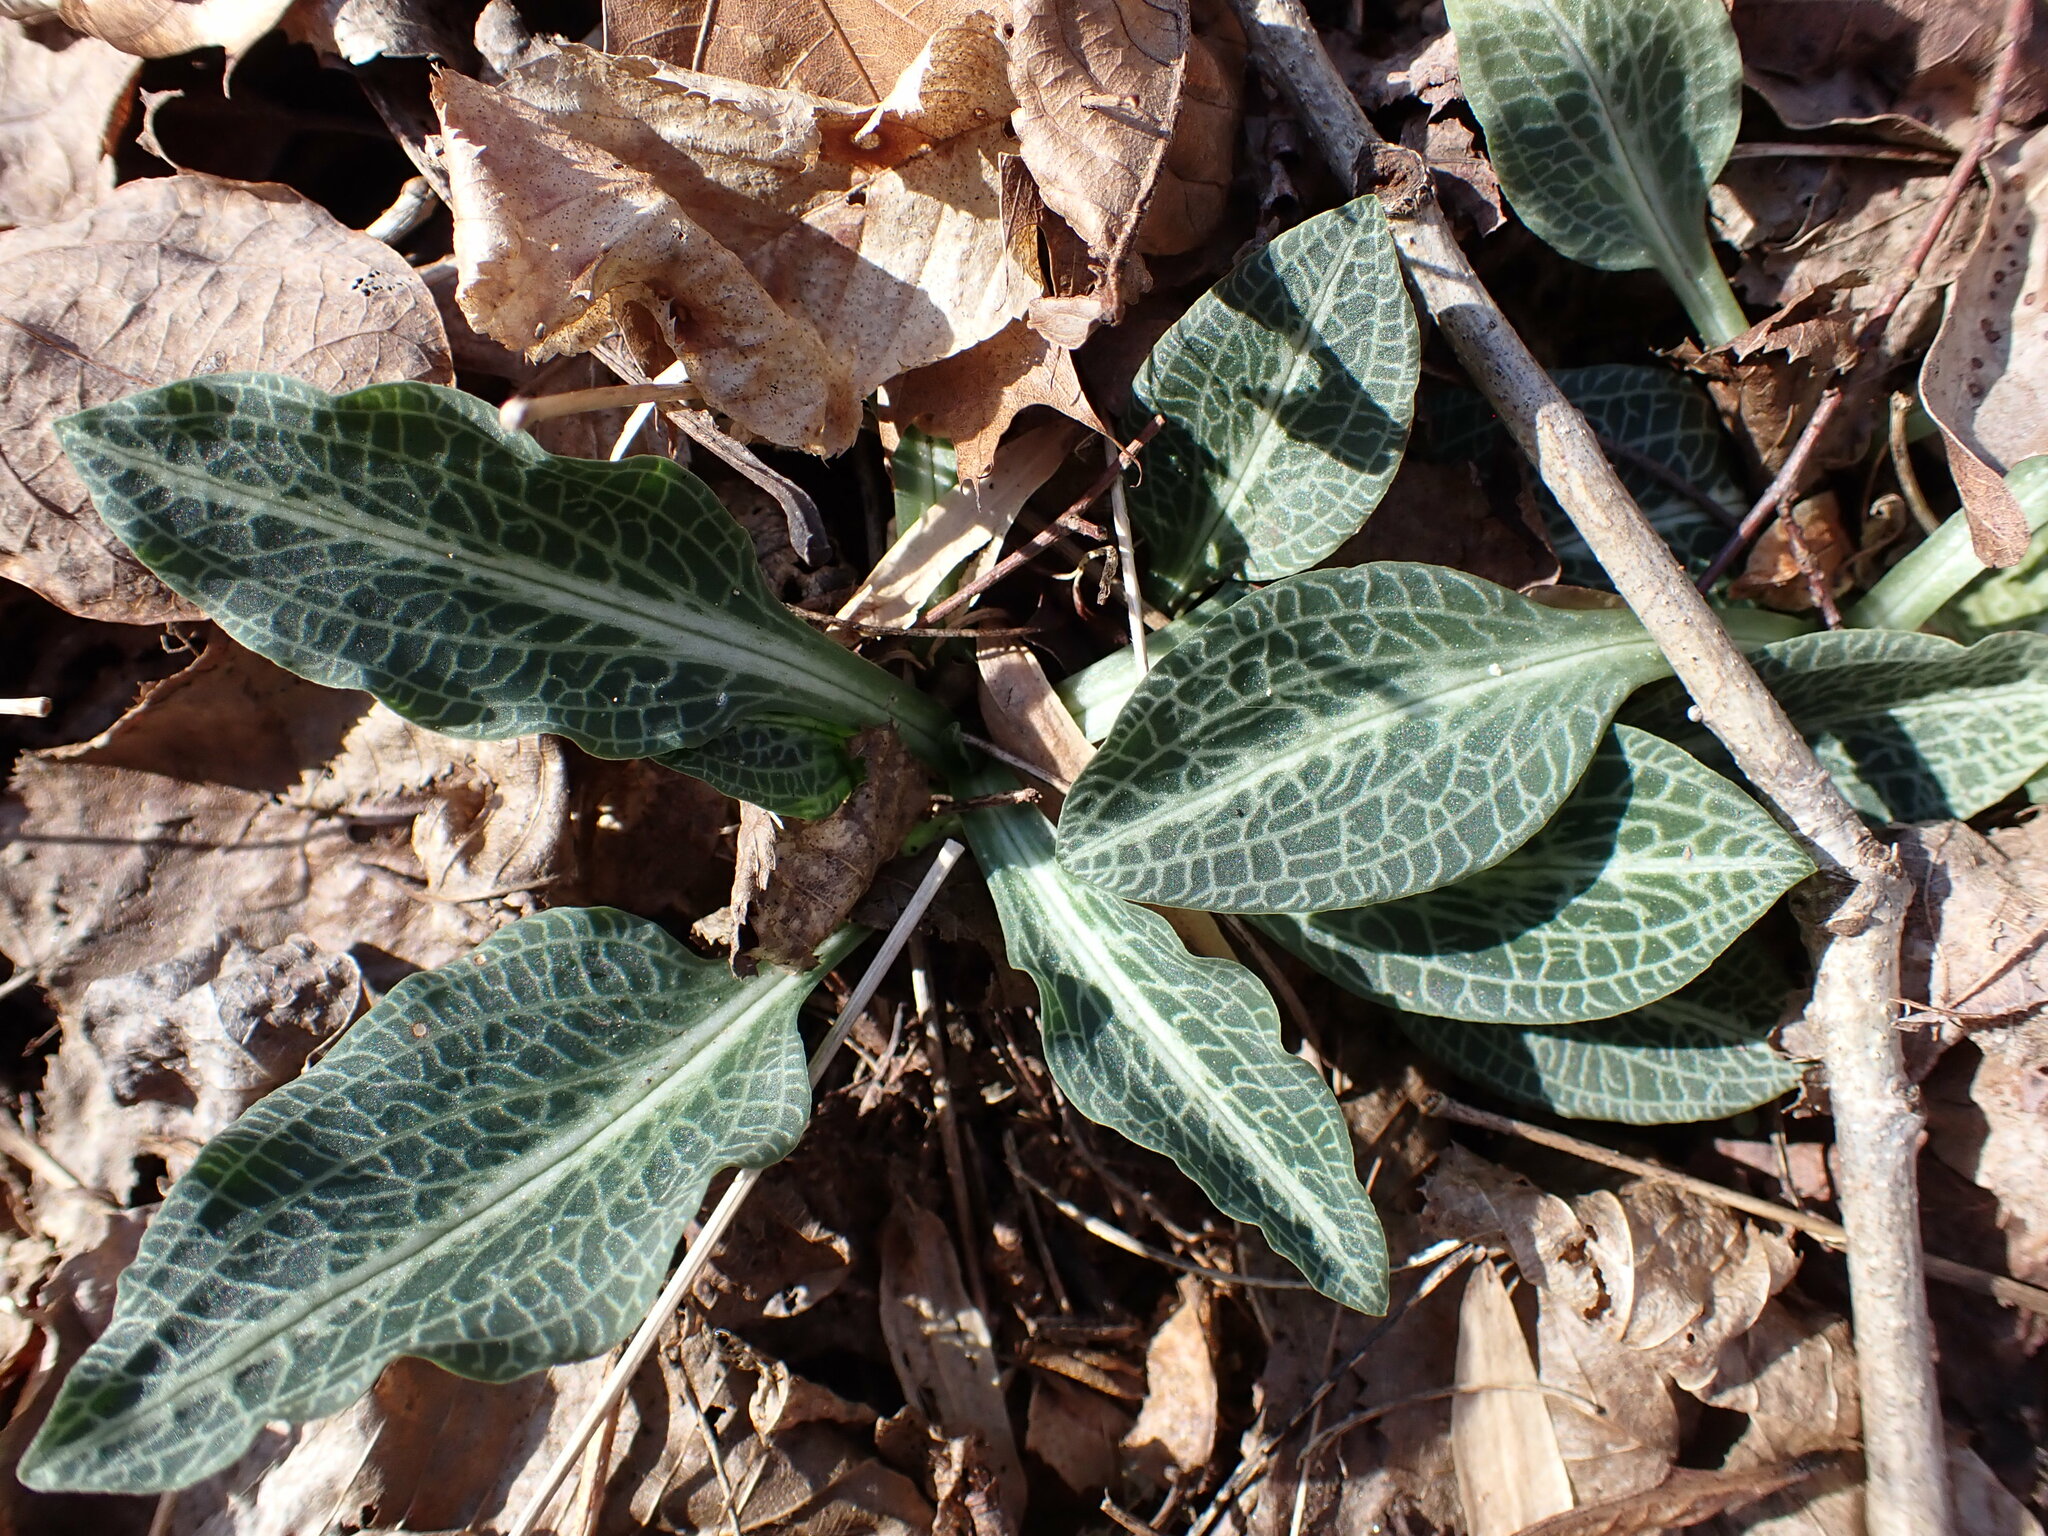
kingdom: Plantae
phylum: Tracheophyta
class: Liliopsida
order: Asparagales
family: Orchidaceae
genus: Goodyera
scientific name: Goodyera pubescens
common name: Downy rattlesnake-plantain
